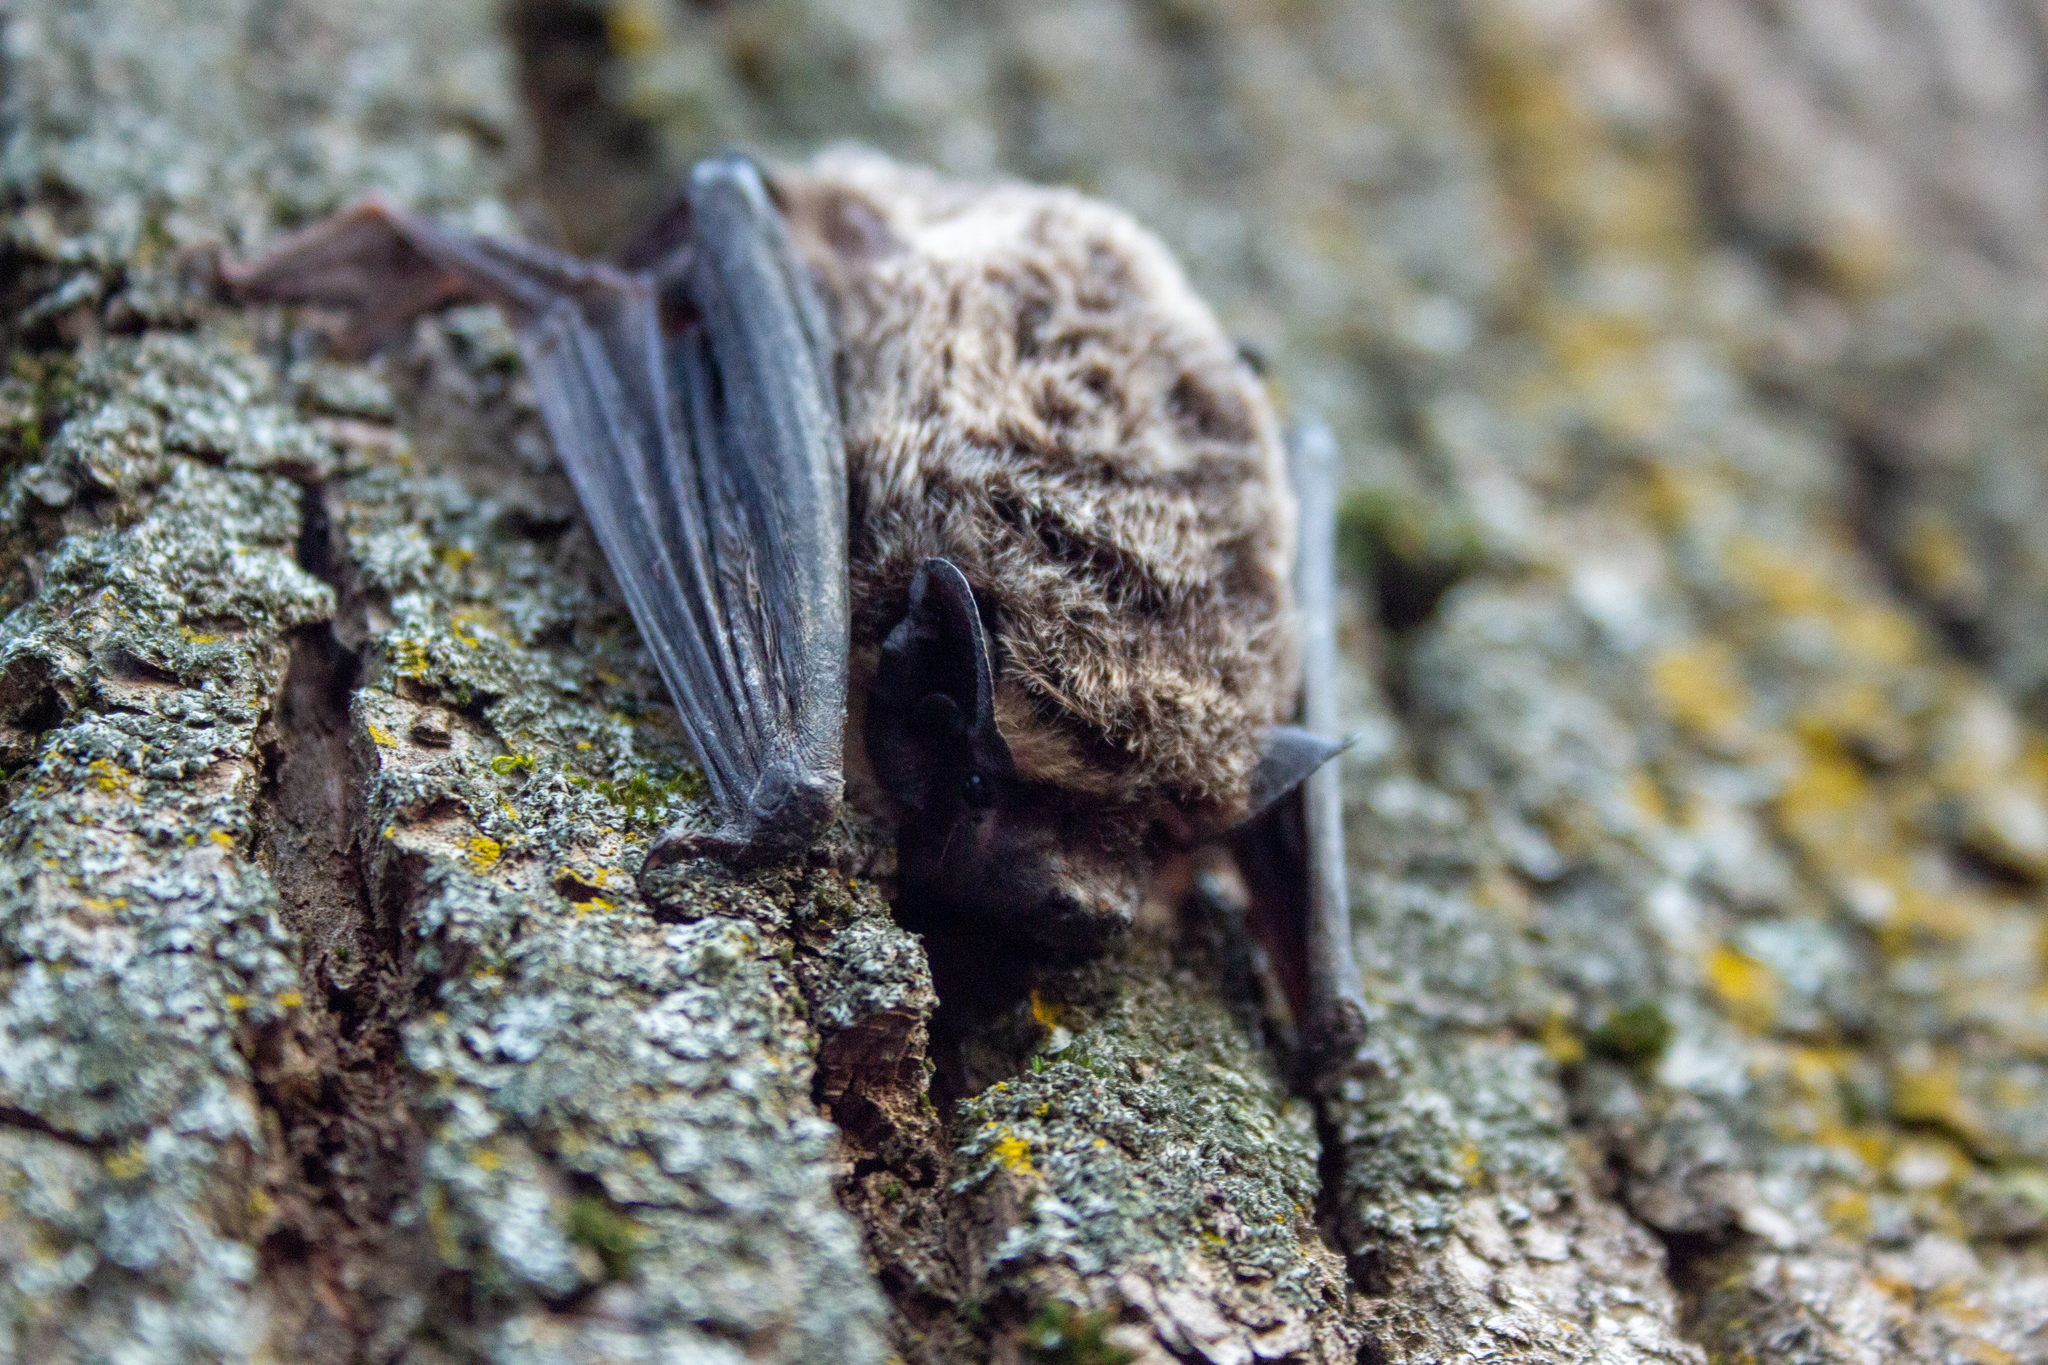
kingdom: Animalia
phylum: Chordata
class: Mammalia
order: Chiroptera
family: Vespertilionidae
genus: Vespertilio
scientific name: Vespertilio murinus
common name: Particolored bat
